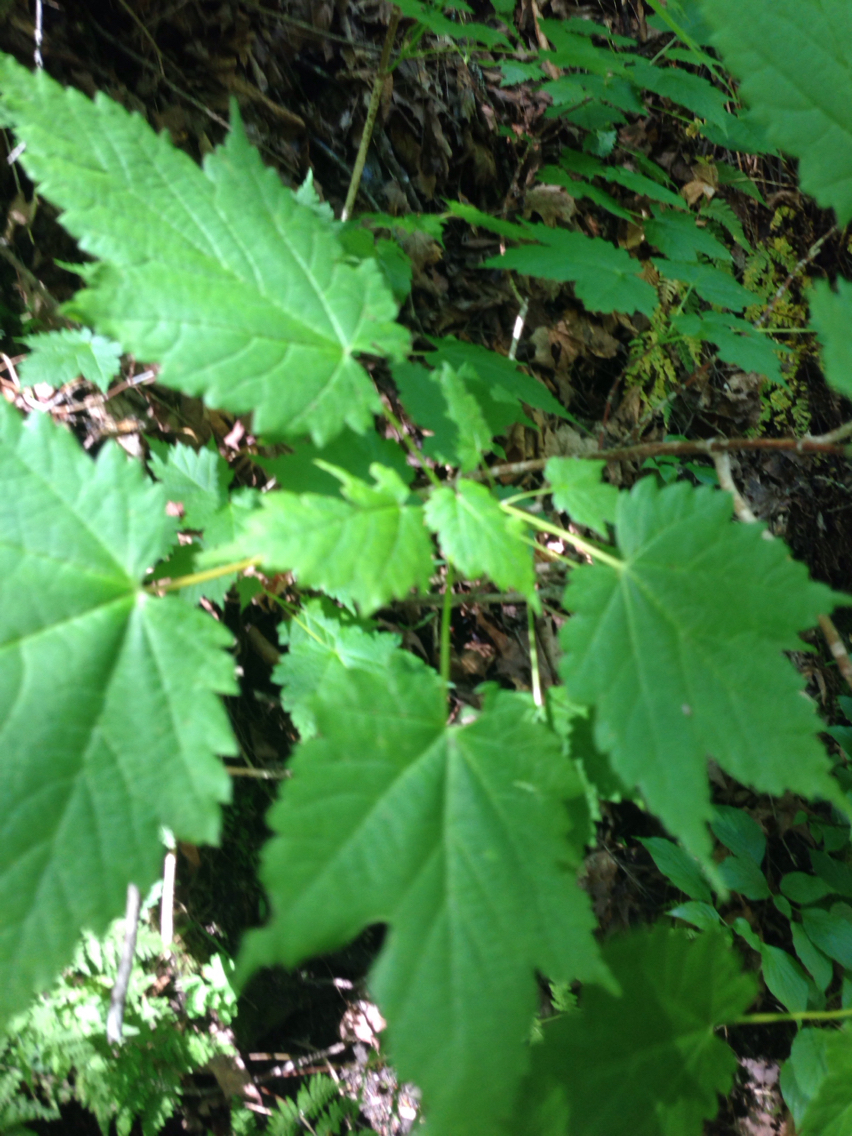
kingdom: Plantae
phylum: Tracheophyta
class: Magnoliopsida
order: Sapindales
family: Sapindaceae
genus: Acer
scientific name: Acer spicatum
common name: Mountain maple
